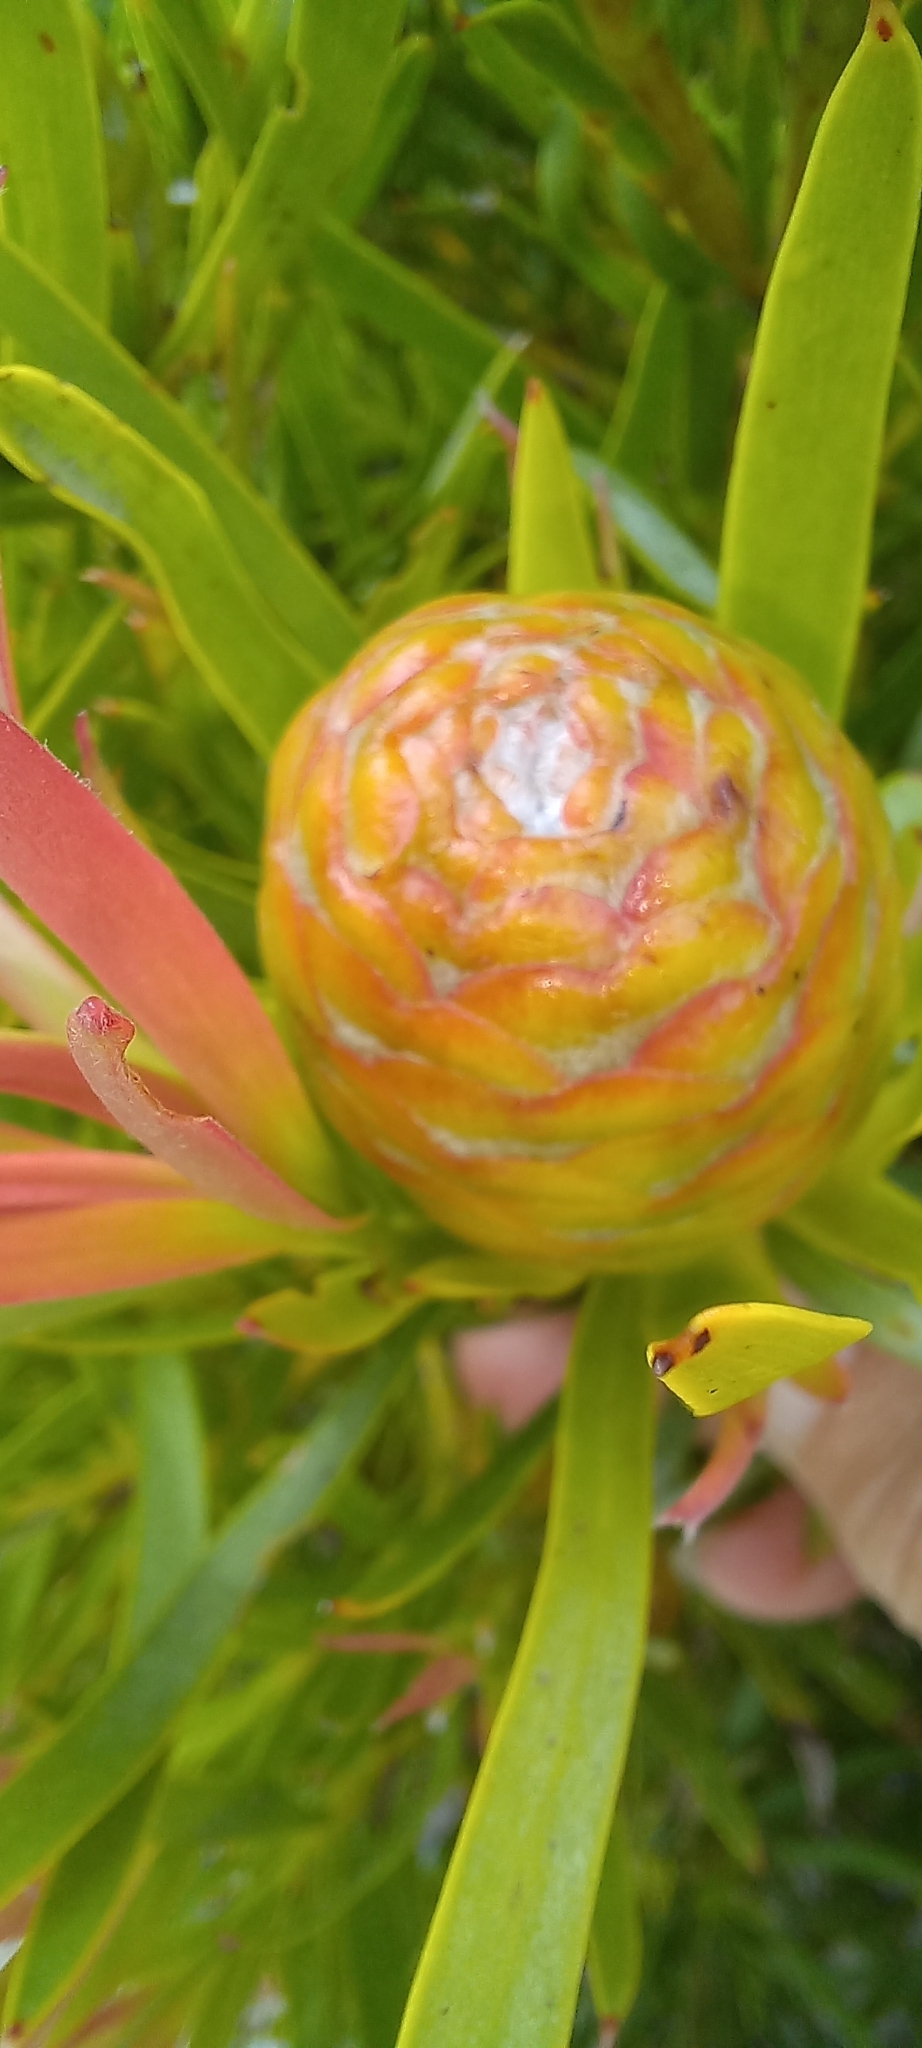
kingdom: Plantae
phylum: Tracheophyta
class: Magnoliopsida
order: Proteales
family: Proteaceae
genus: Leucadendron
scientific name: Leucadendron xanthoconus
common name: Sickle-leaf conebush
